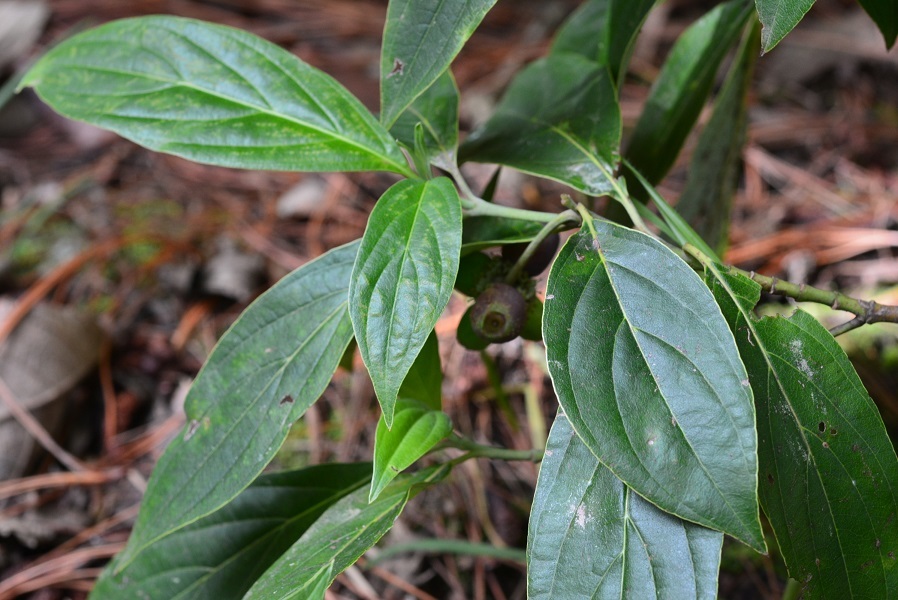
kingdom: Plantae
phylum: Tracheophyta
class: Magnoliopsida
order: Cornales
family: Cornaceae
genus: Cornus
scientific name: Cornus disciflora
